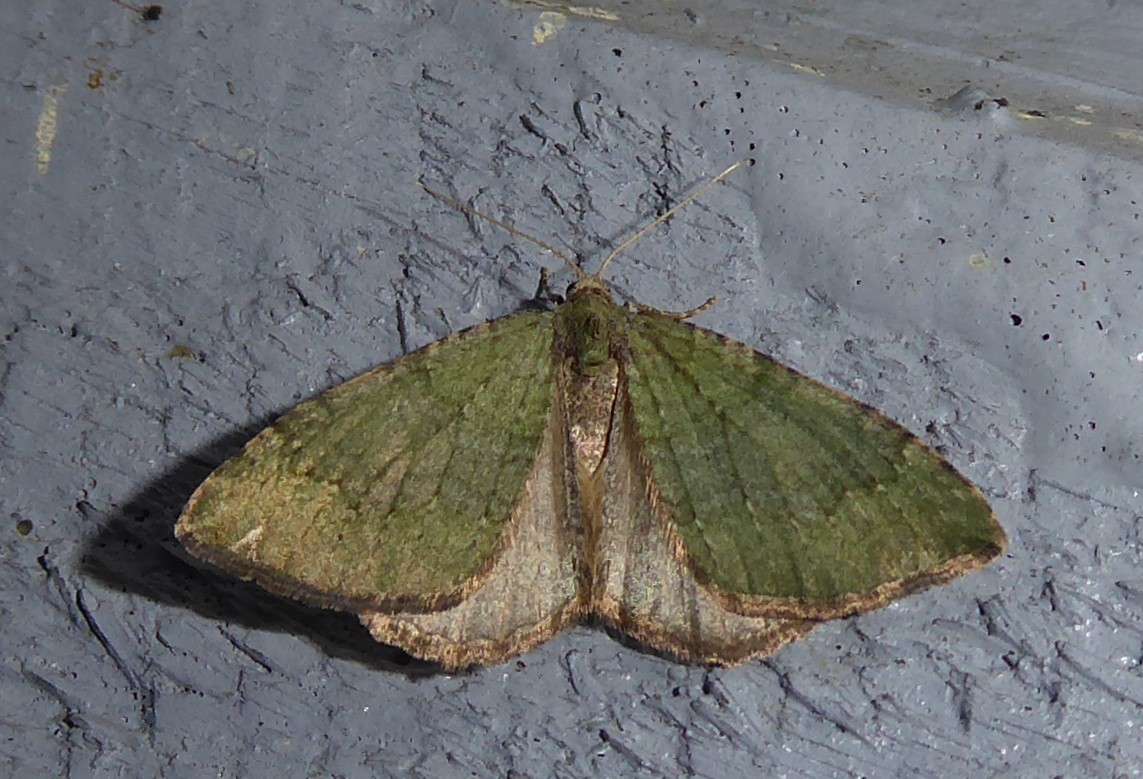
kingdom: Animalia
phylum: Arthropoda
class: Insecta
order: Lepidoptera
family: Geometridae
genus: Epyaxa
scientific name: Epyaxa rosearia
